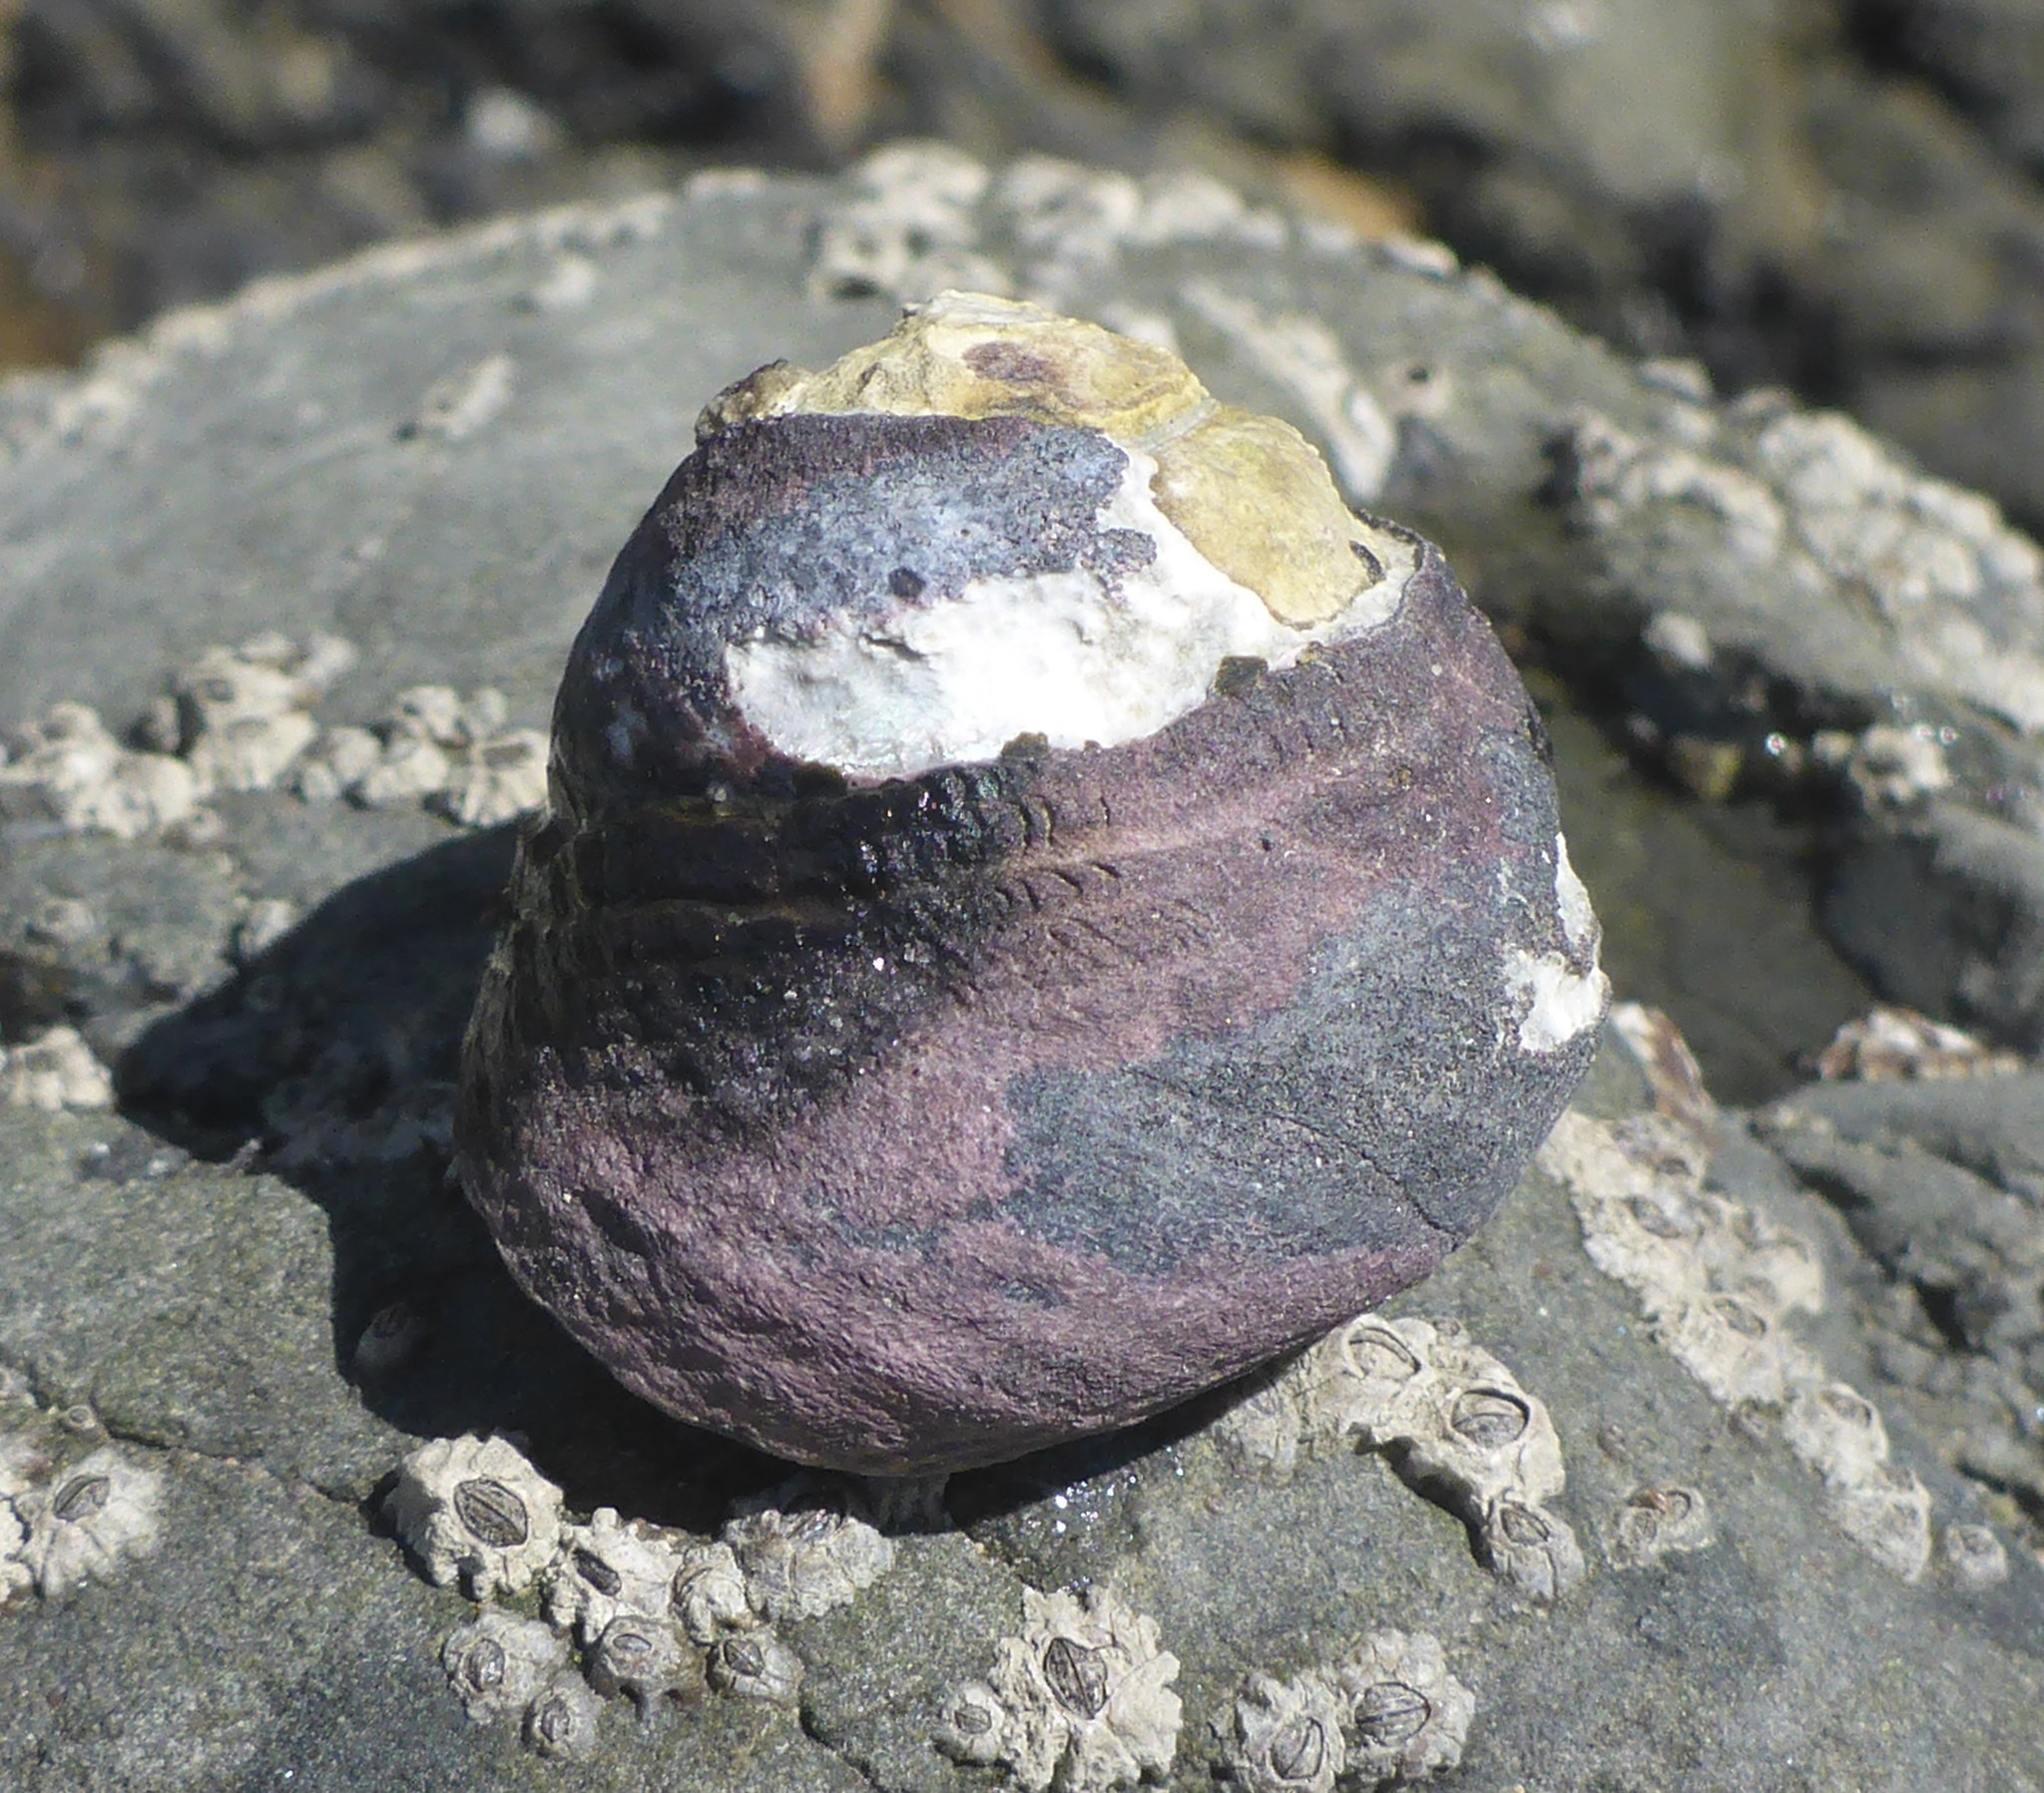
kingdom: Animalia
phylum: Mollusca
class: Gastropoda
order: Trochida
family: Tegulidae
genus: Tegula
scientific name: Tegula funebralis
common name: Black tegula
